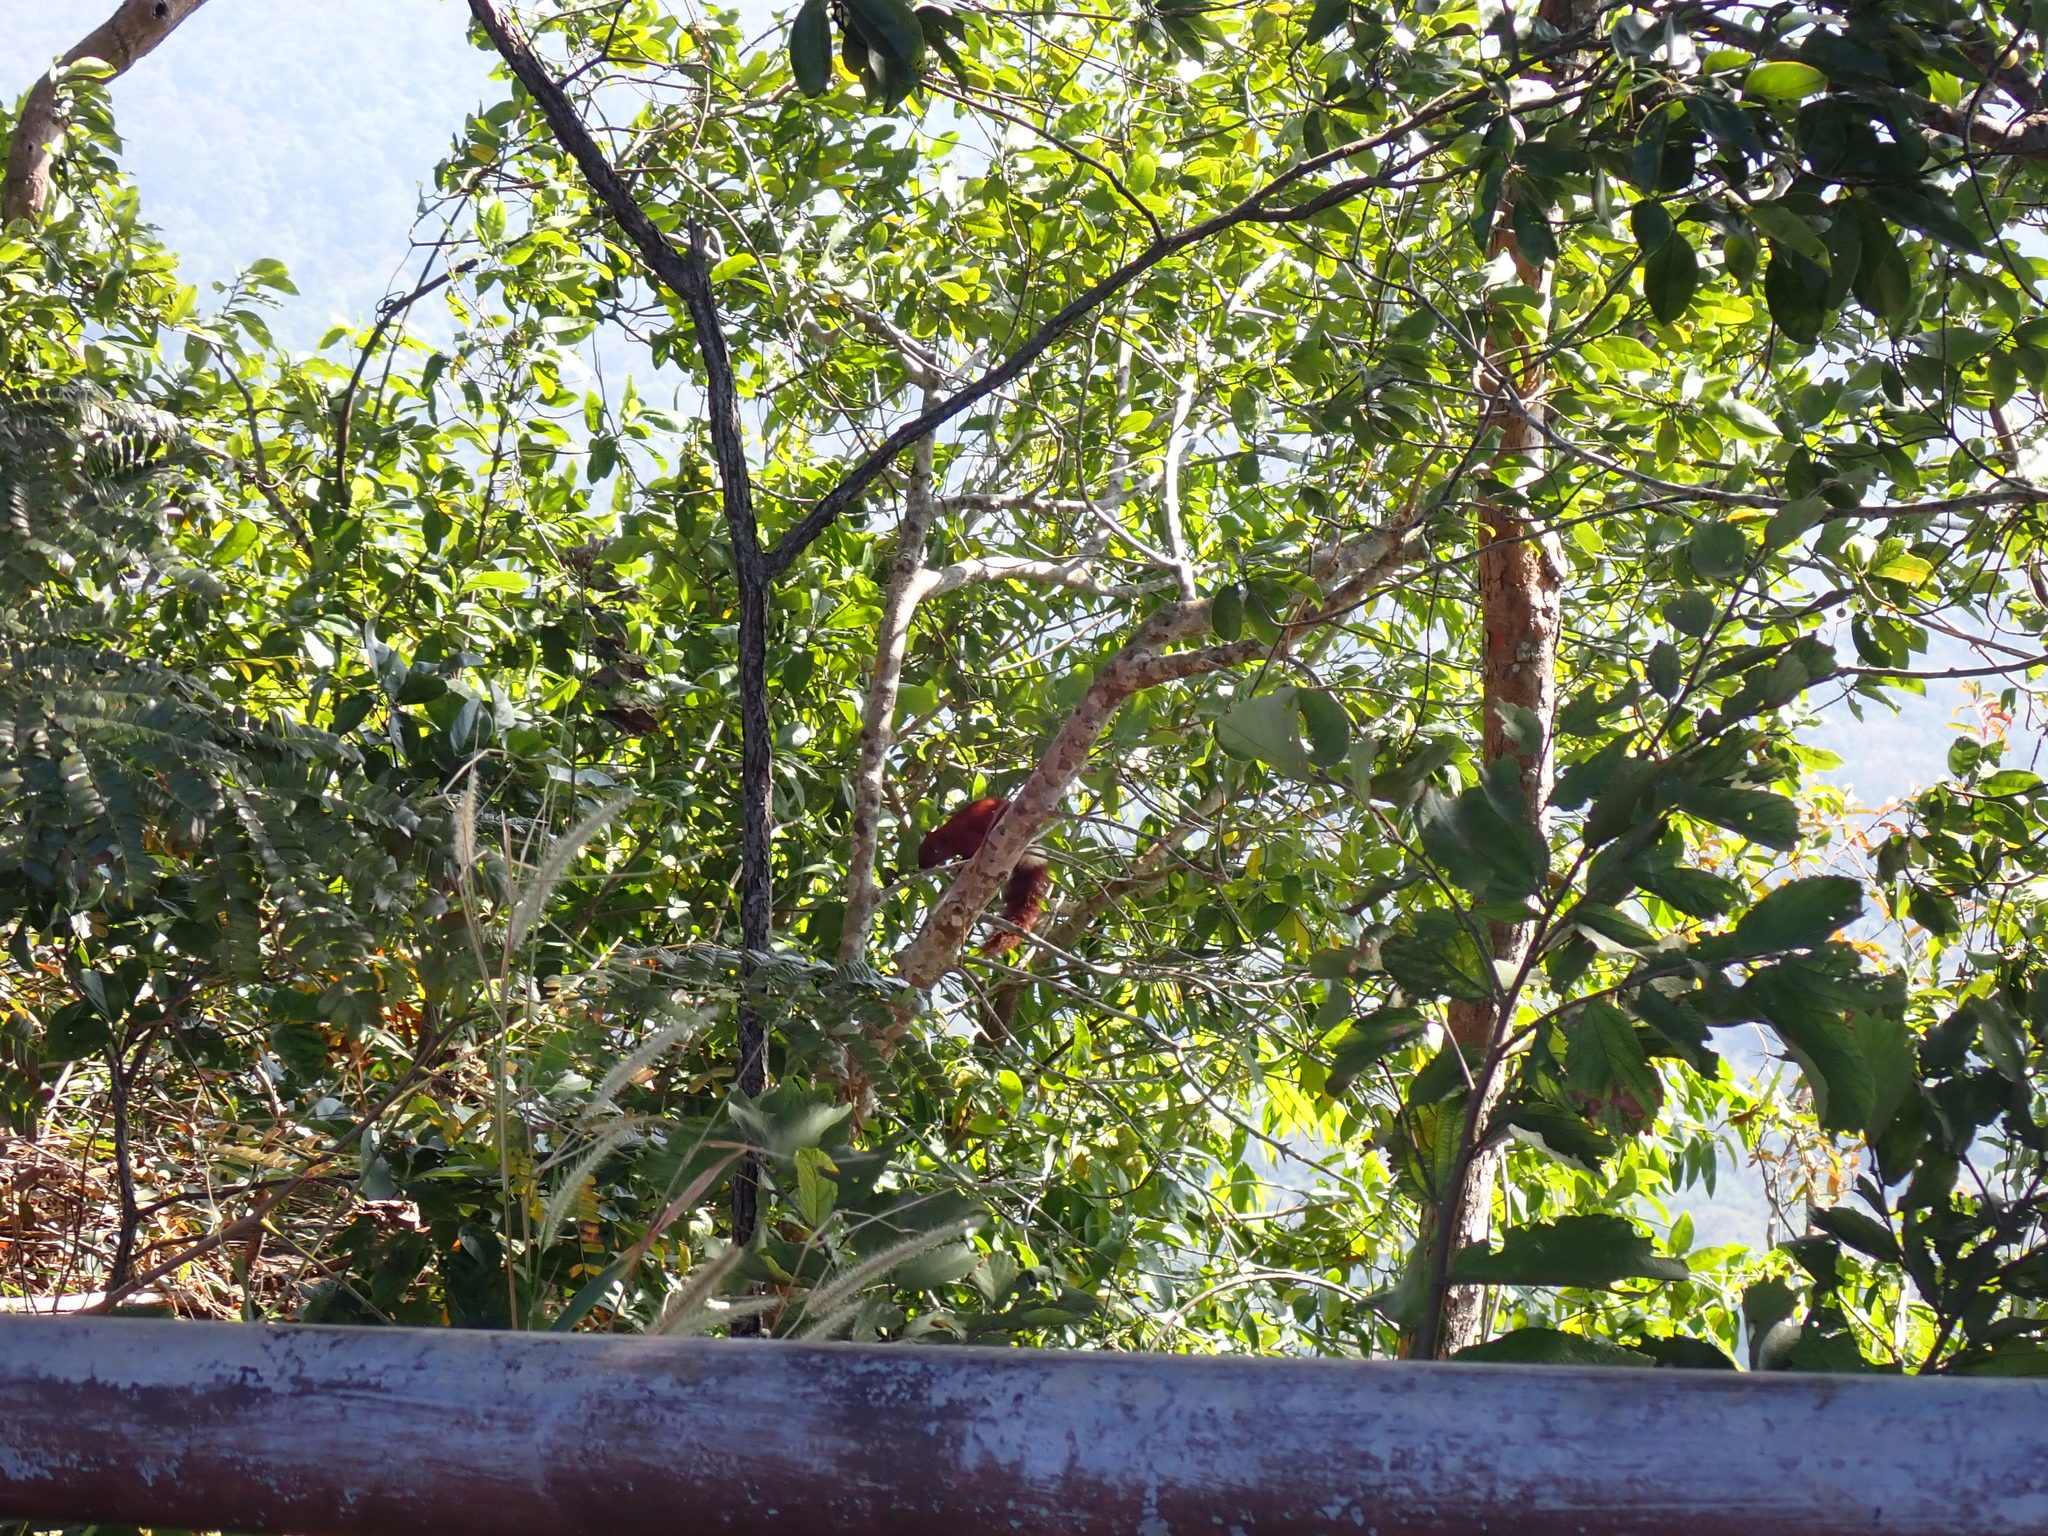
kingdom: Animalia
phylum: Chordata
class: Mammalia
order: Rodentia
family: Sciuridae
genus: Callosciurus
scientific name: Callosciurus finlaysonii
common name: Finlayson's squirrel
